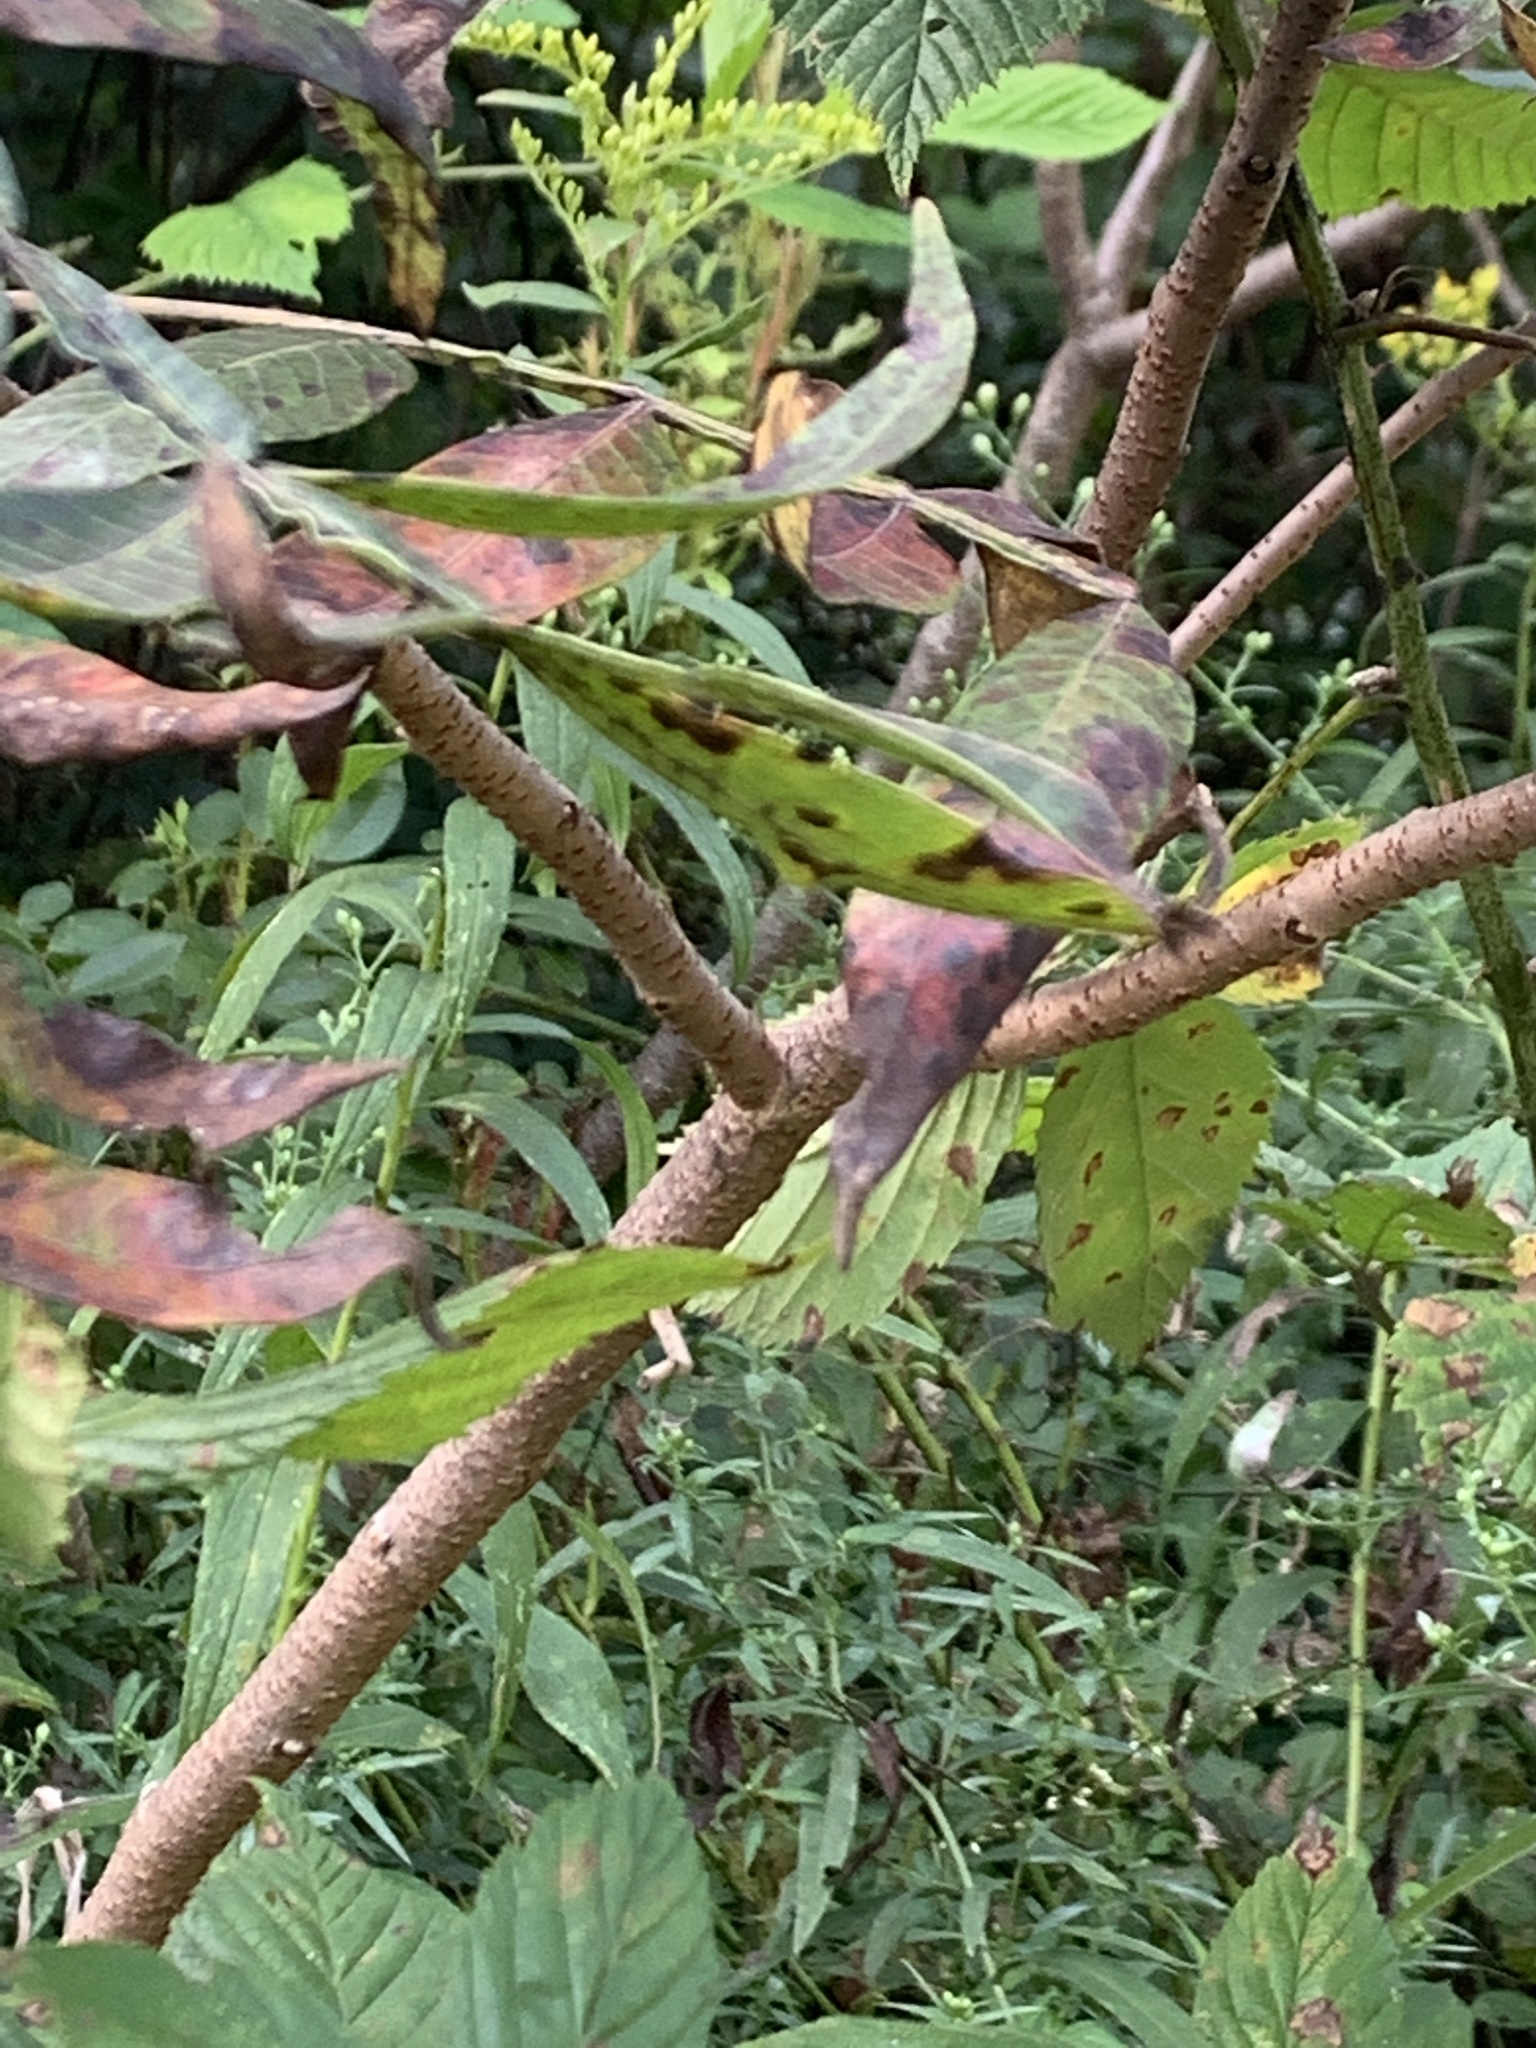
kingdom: Plantae
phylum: Tracheophyta
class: Magnoliopsida
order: Sapindales
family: Anacardiaceae
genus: Rhus
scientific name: Rhus copallina
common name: Shining sumac
